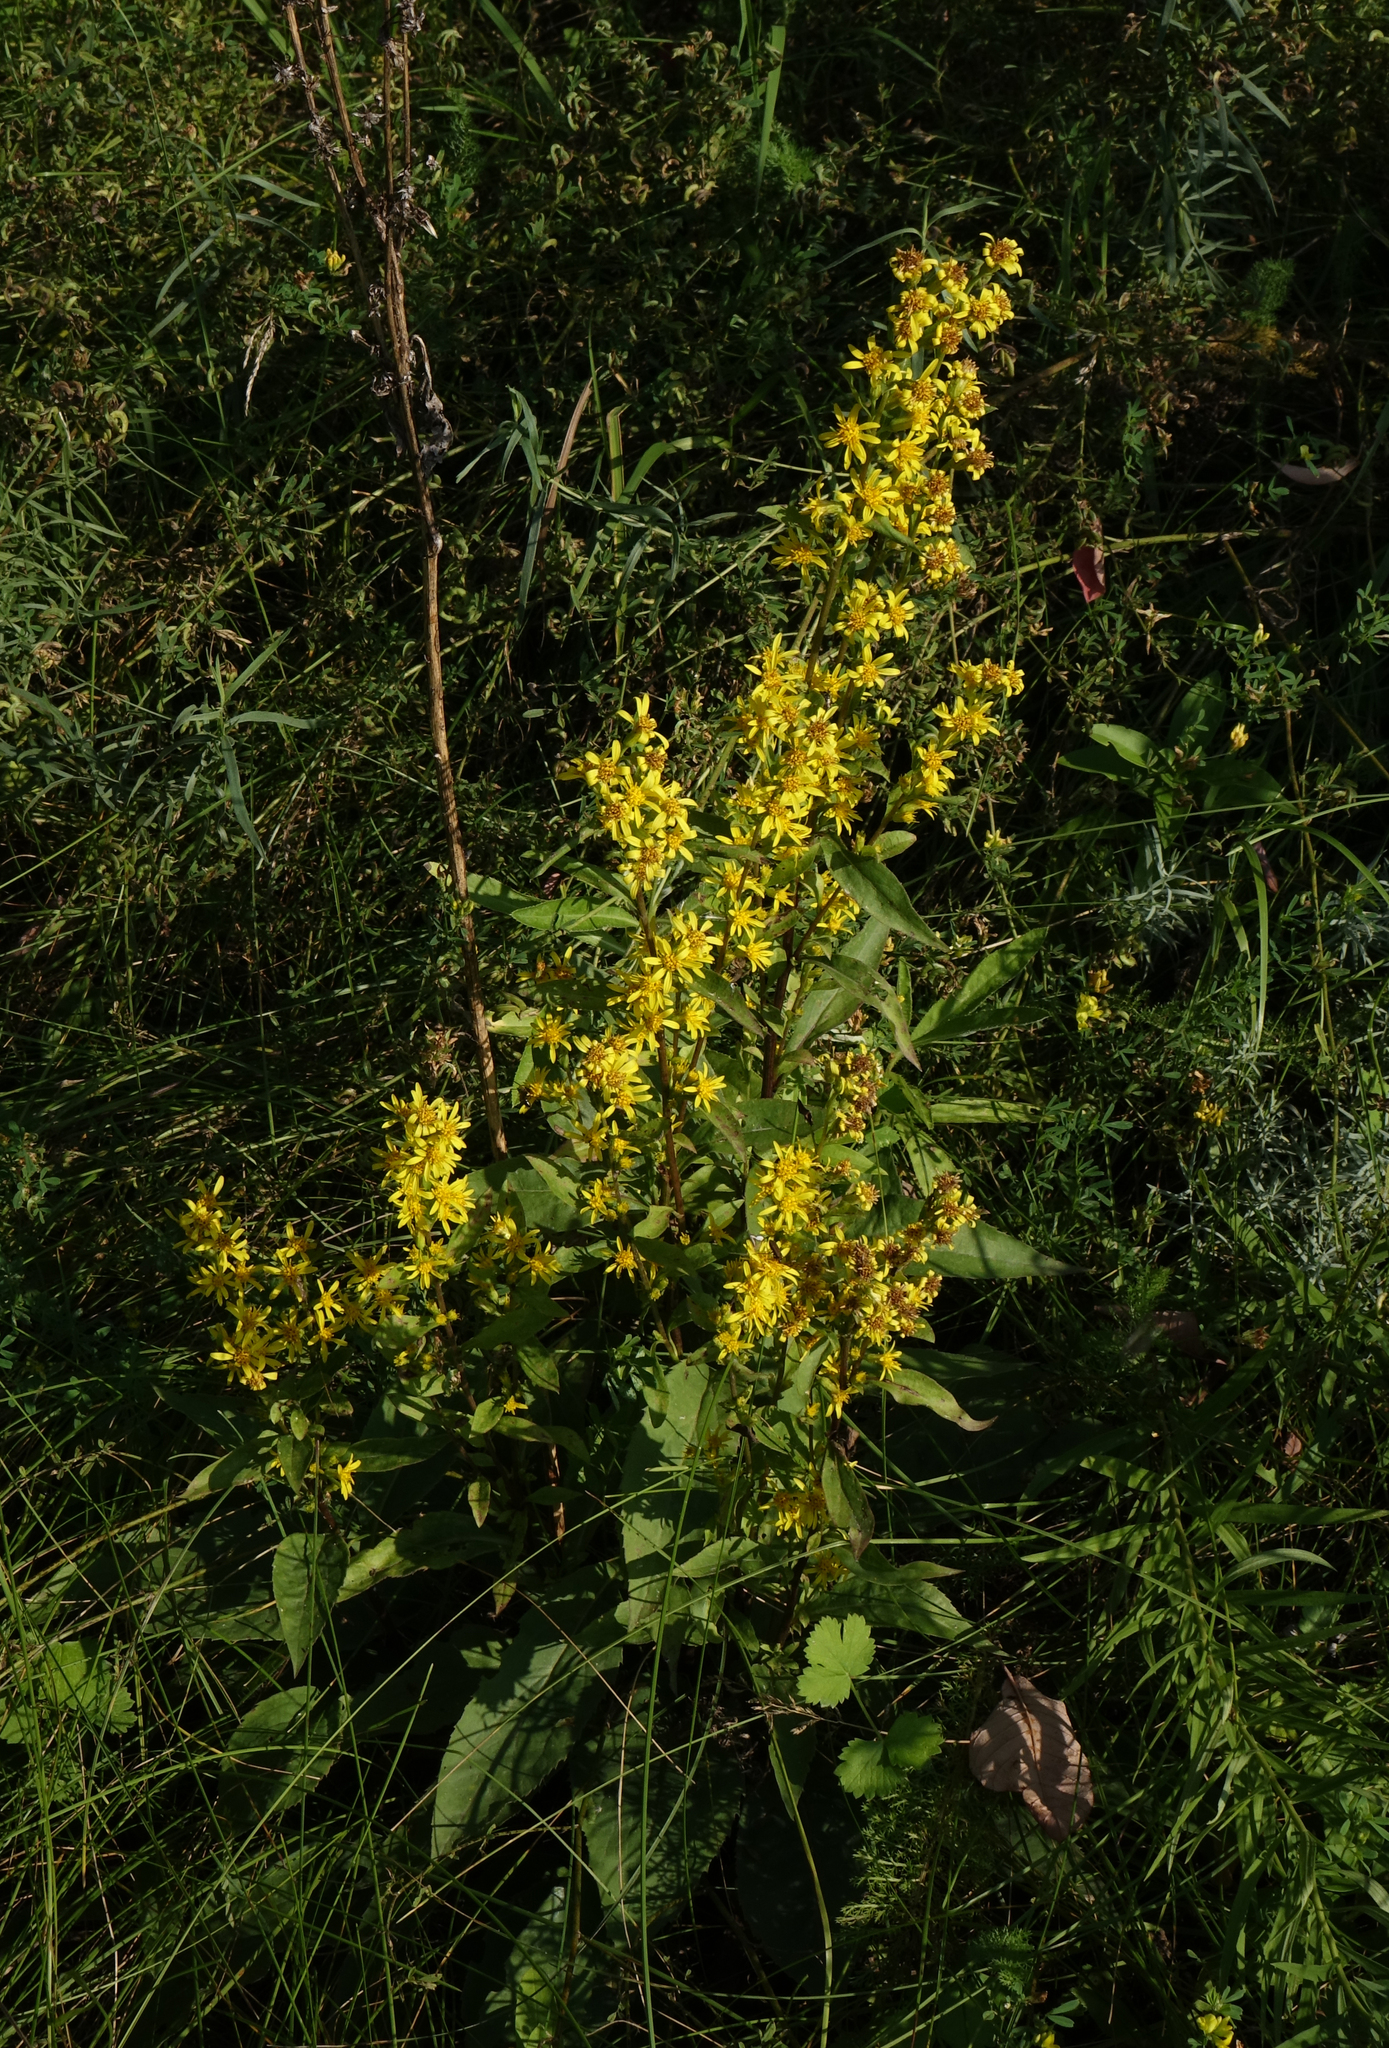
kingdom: Plantae
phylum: Tracheophyta
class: Magnoliopsida
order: Asterales
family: Asteraceae
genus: Solidago
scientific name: Solidago virgaurea
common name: Goldenrod
